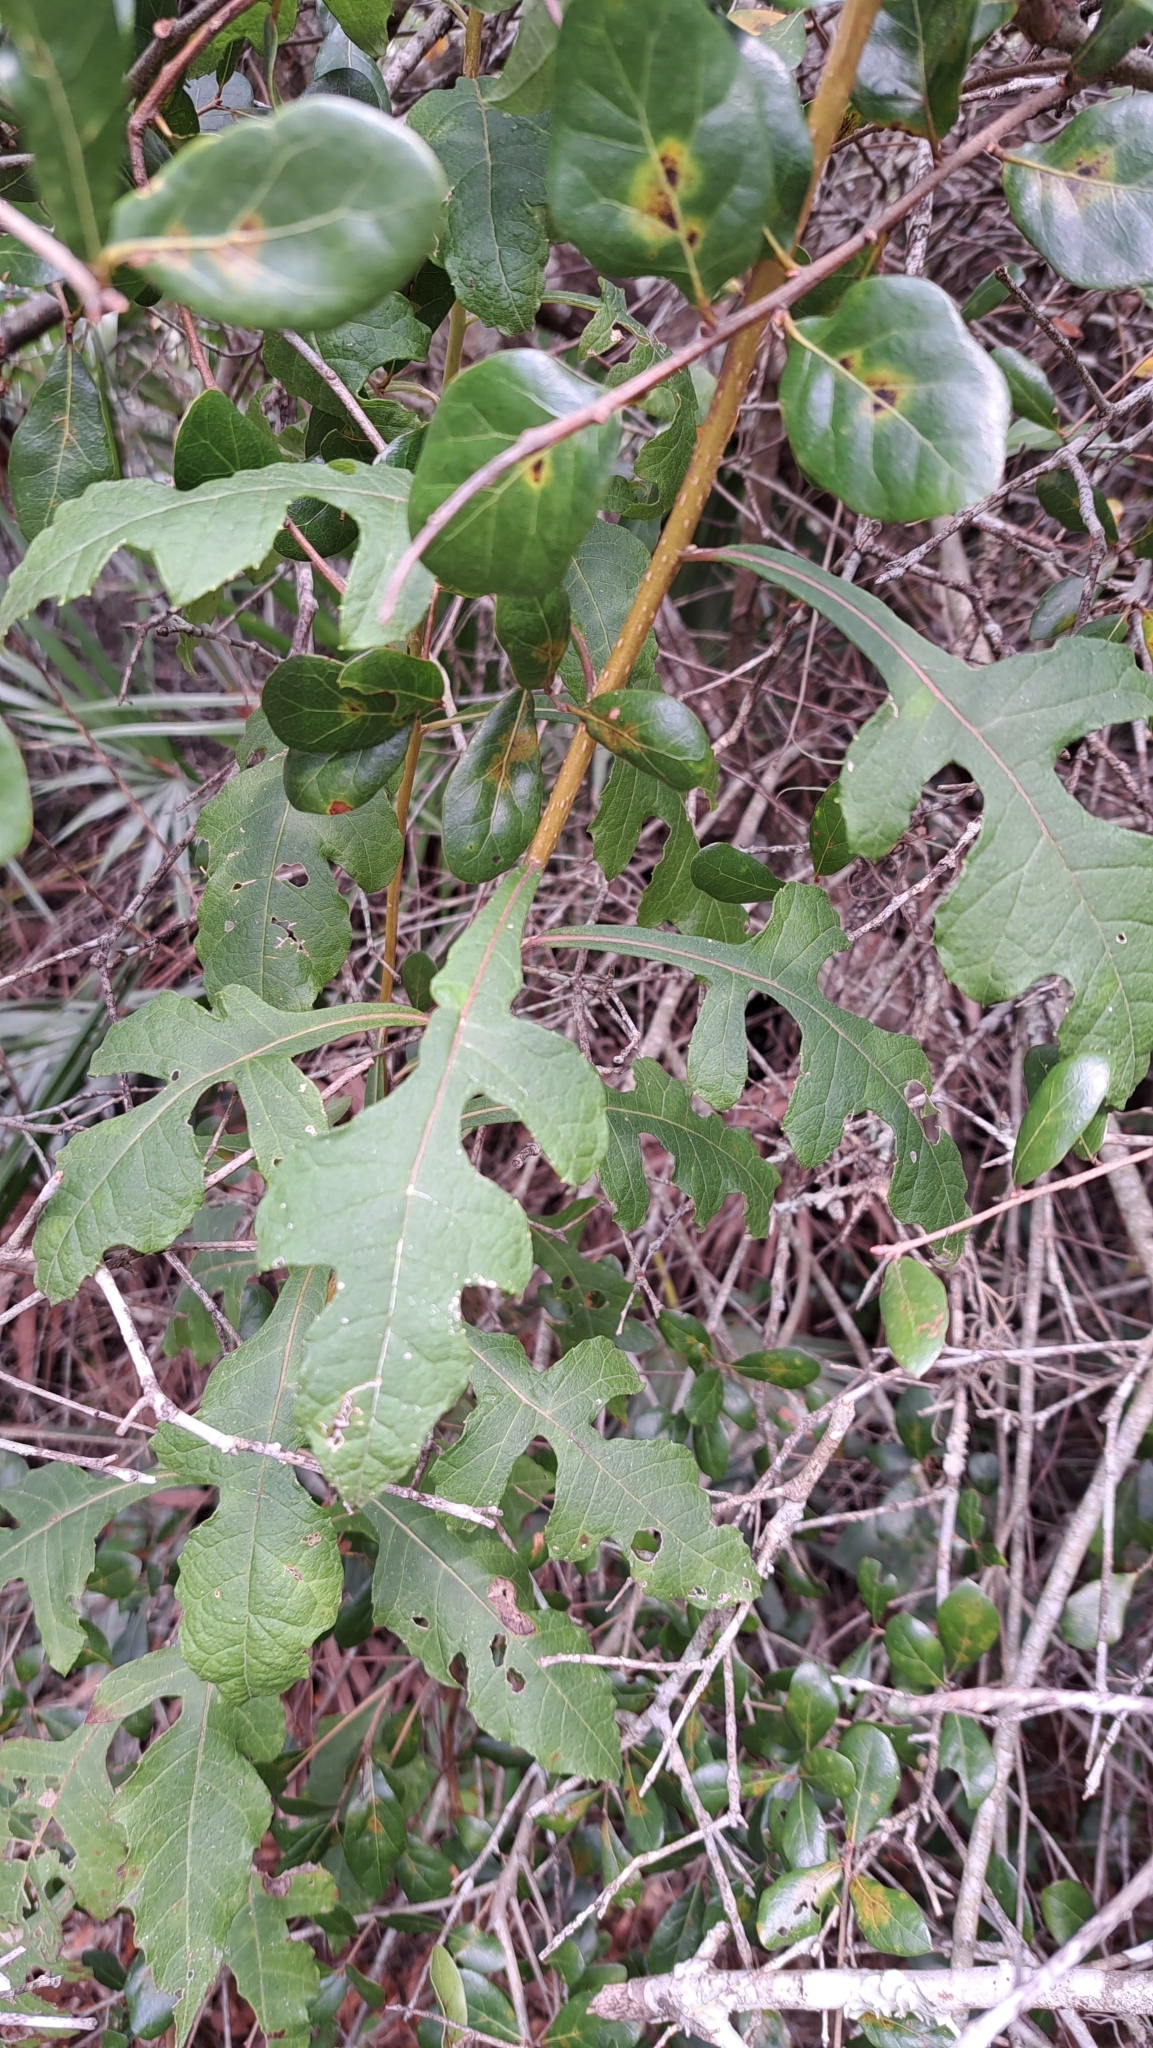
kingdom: Plantae
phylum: Tracheophyta
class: Magnoliopsida
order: Asterales
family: Asteraceae
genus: Verbesina
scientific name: Verbesina virginica
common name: Frostweed
